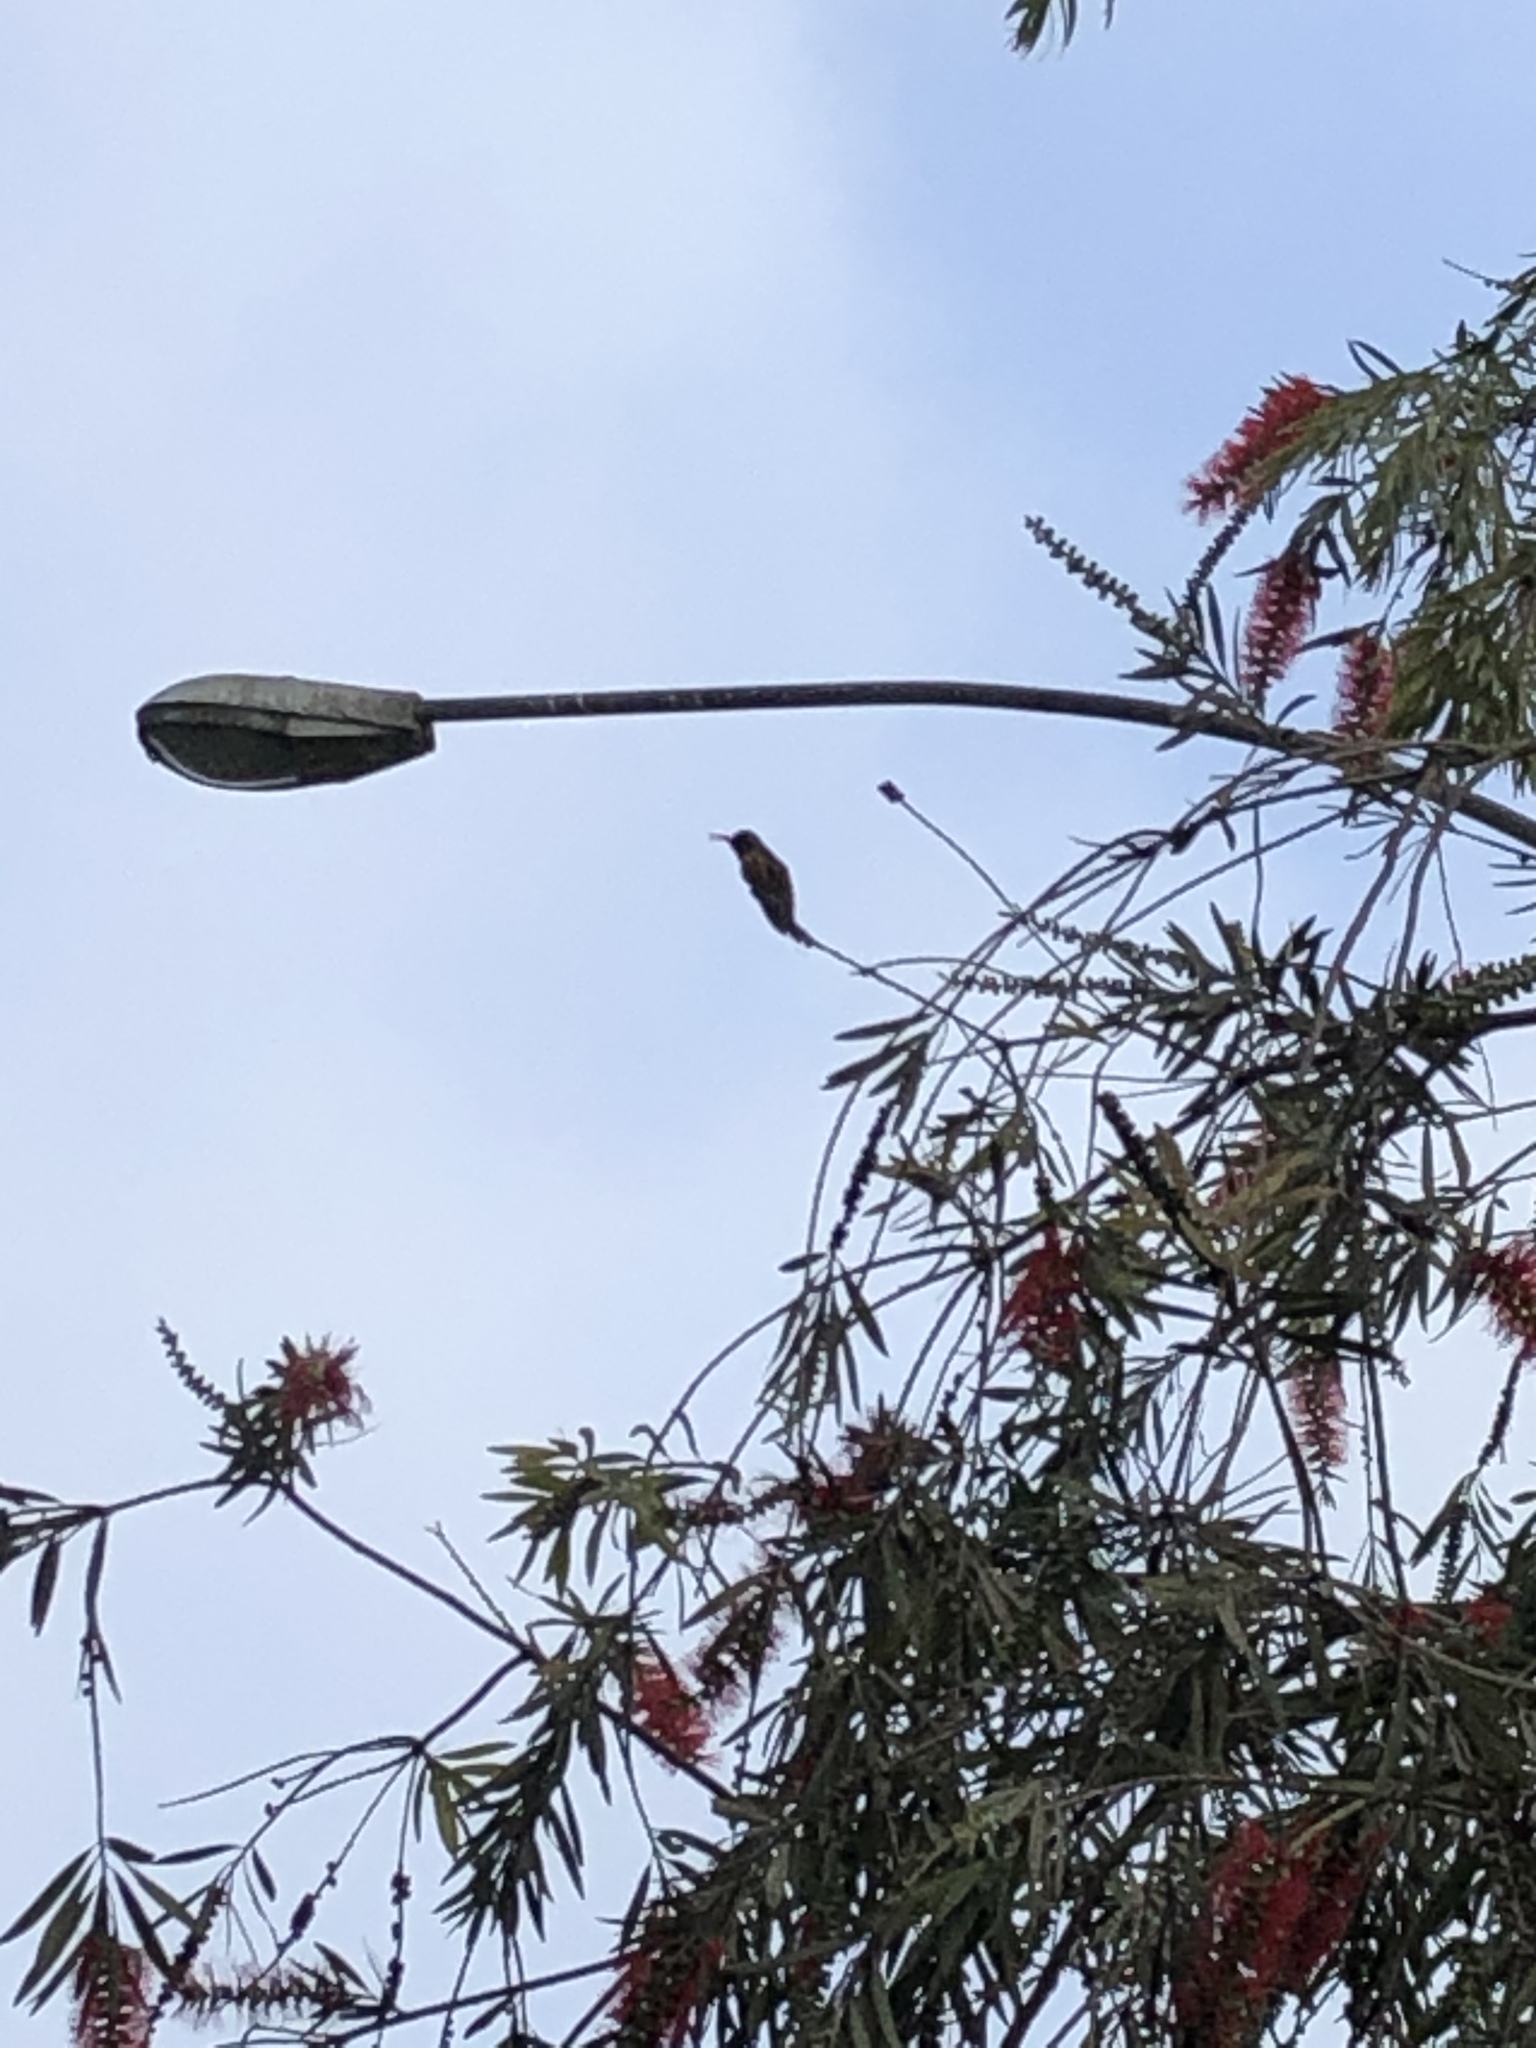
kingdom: Animalia
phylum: Chordata
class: Aves
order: Apodiformes
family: Trochilidae
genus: Amazilis
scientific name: Amazilis amazilia
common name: Amazilia hummingbird
